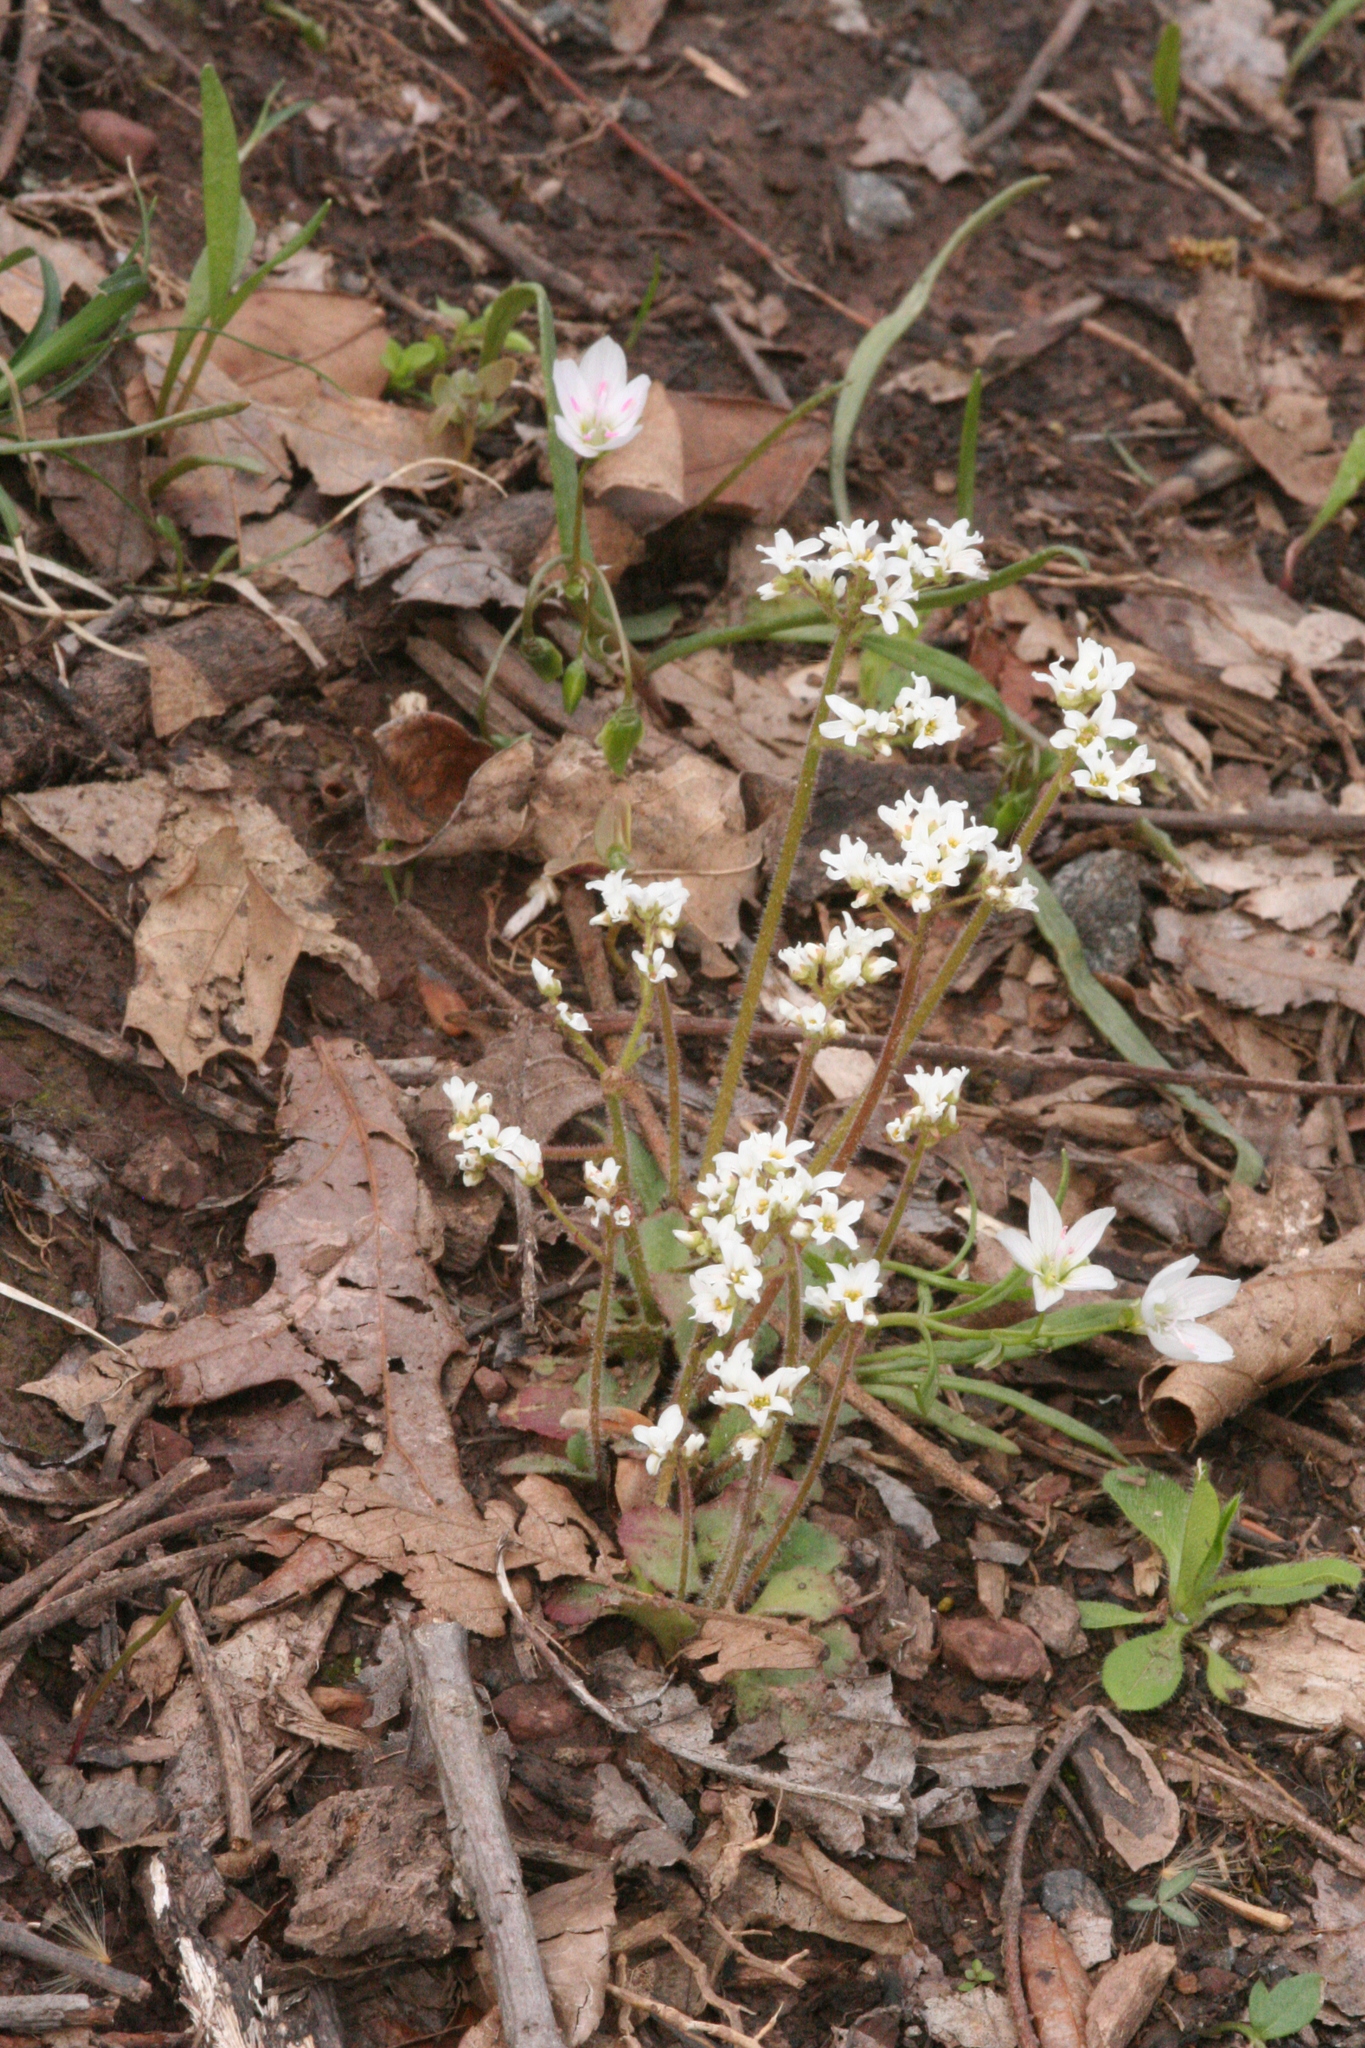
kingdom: Plantae
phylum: Tracheophyta
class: Magnoliopsida
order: Saxifragales
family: Saxifragaceae
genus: Micranthes
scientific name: Micranthes virginiensis
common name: Early saxifrage
